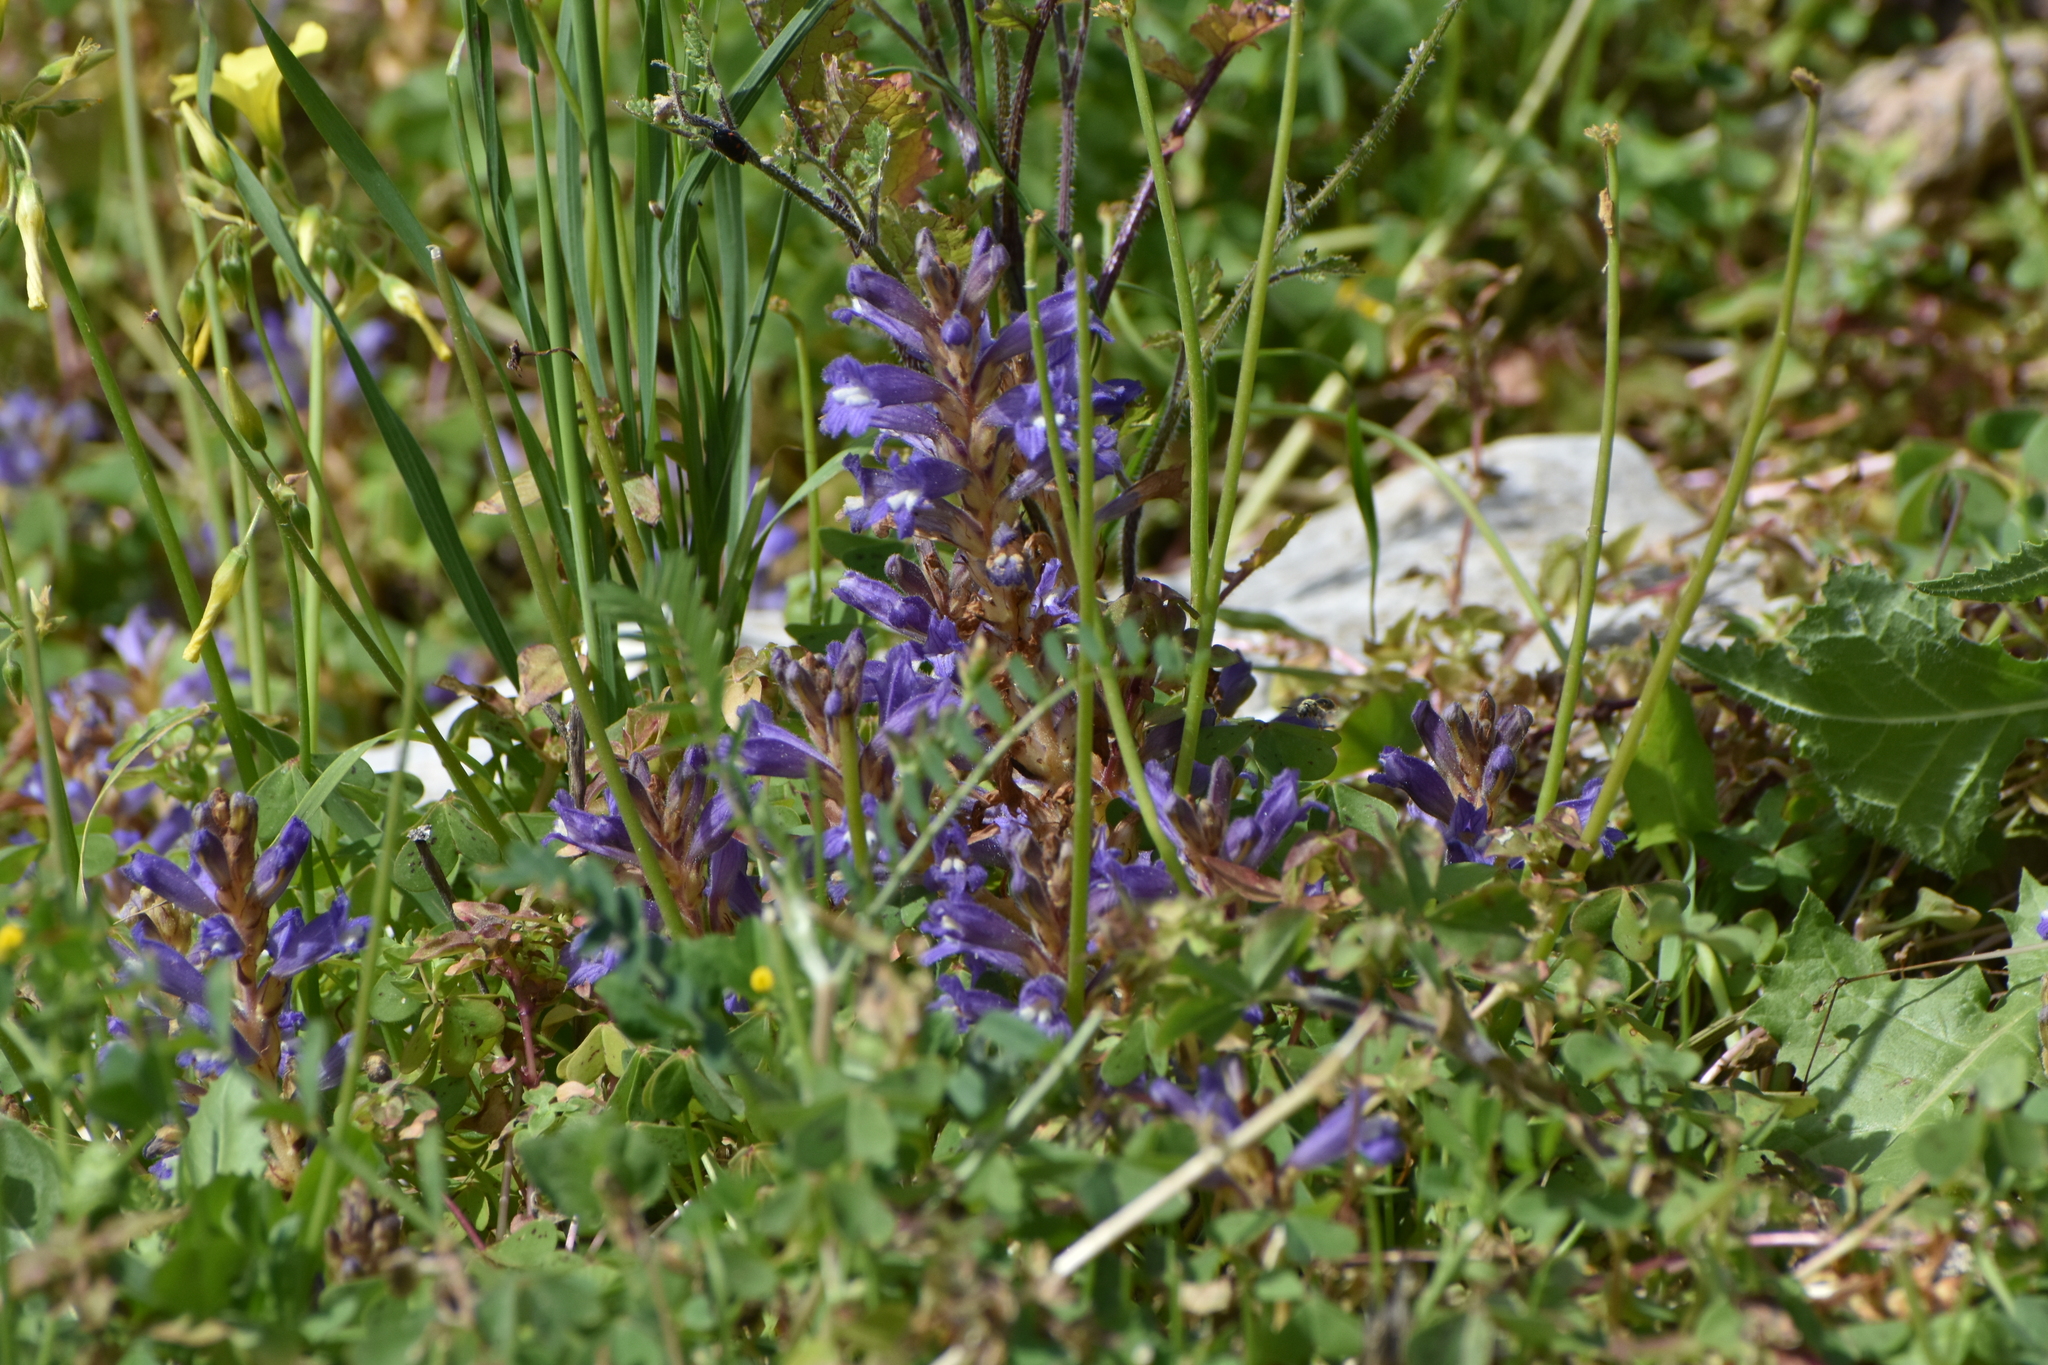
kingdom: Plantae
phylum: Tracheophyta
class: Magnoliopsida
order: Lamiales
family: Orobanchaceae
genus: Phelipanche
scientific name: Phelipanche aegyptiaca
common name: Egyptian broomrape
